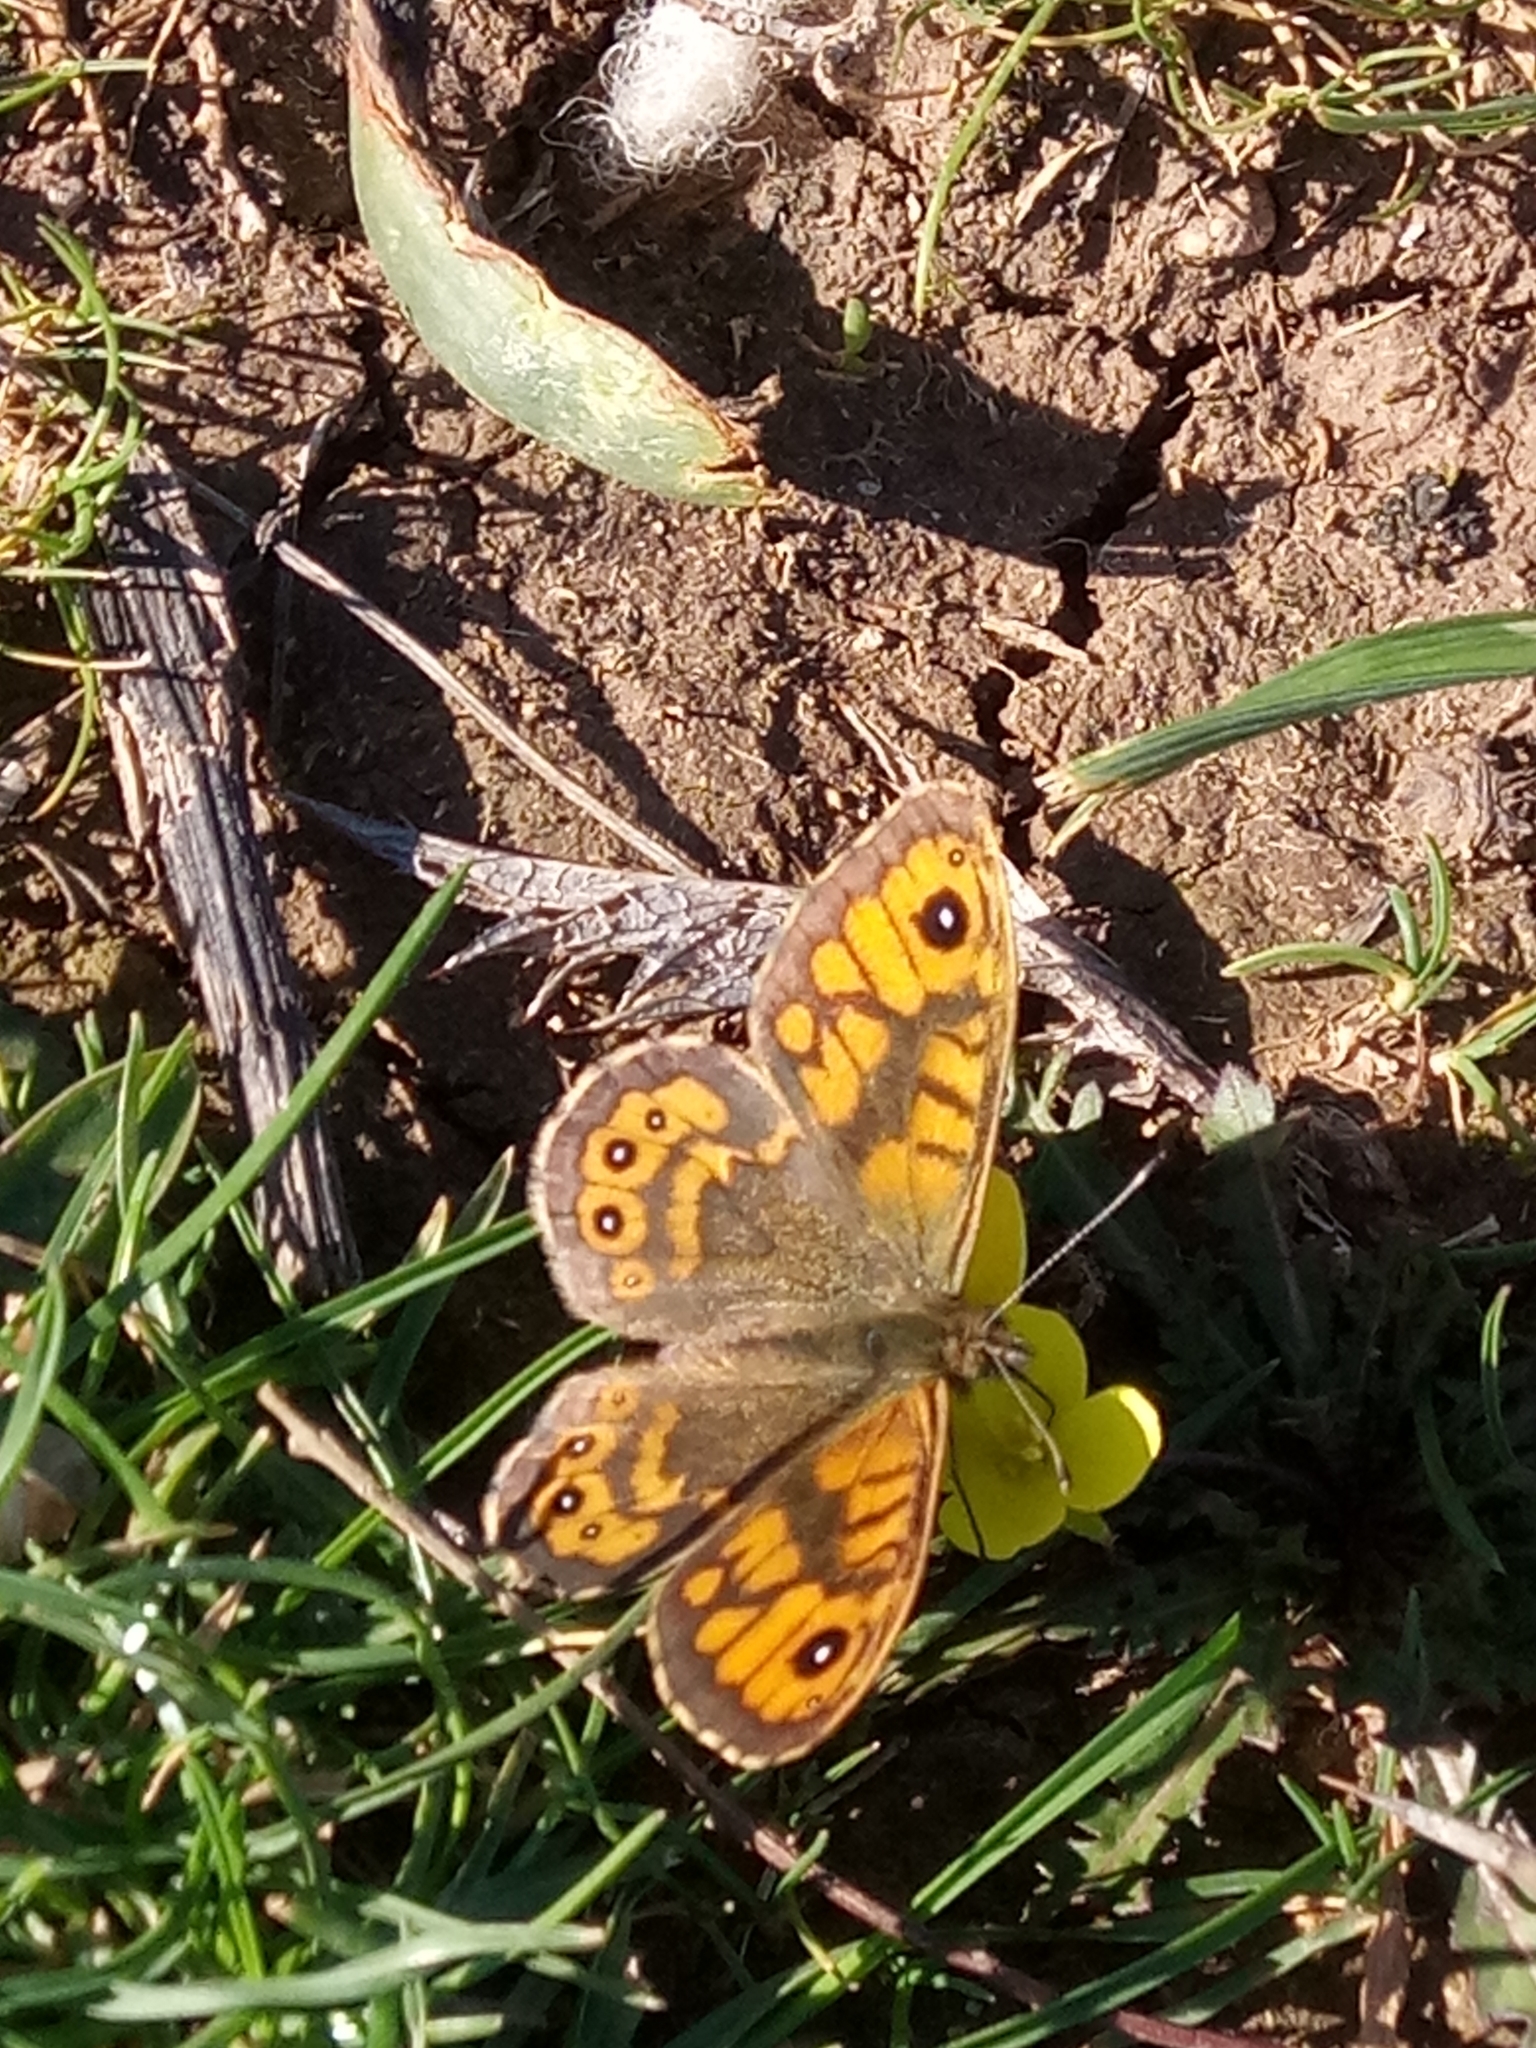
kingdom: Animalia
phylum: Arthropoda
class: Insecta
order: Lepidoptera
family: Nymphalidae
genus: Pararge
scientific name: Pararge Lasiommata megera
